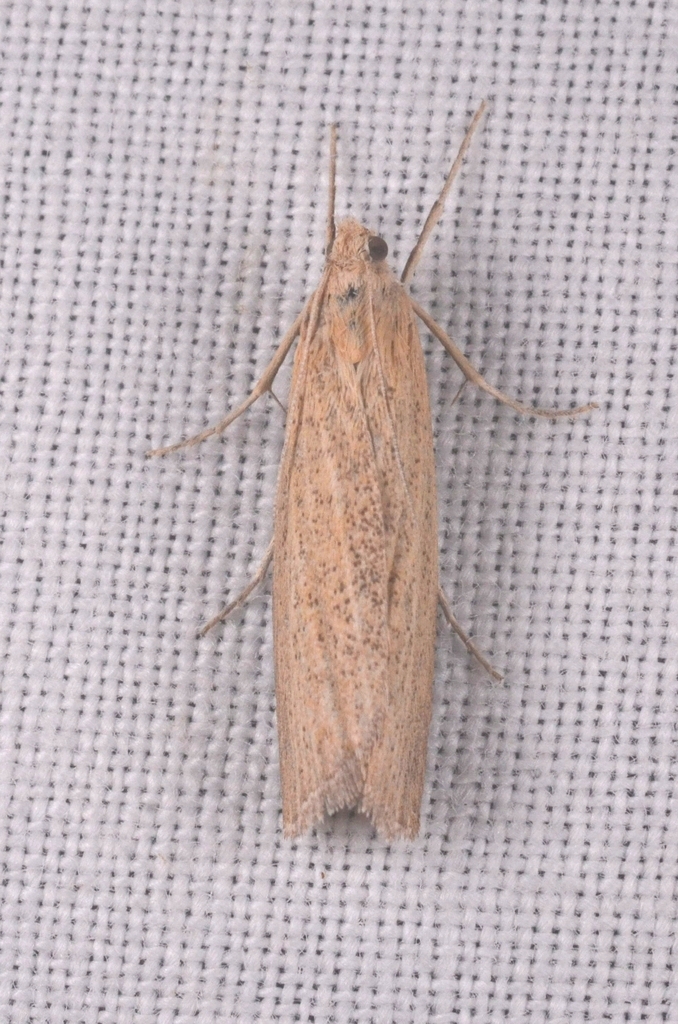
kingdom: Animalia
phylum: Arthropoda
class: Insecta
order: Lepidoptera
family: Crambidae
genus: Pediasia
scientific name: Pediasia luteella
